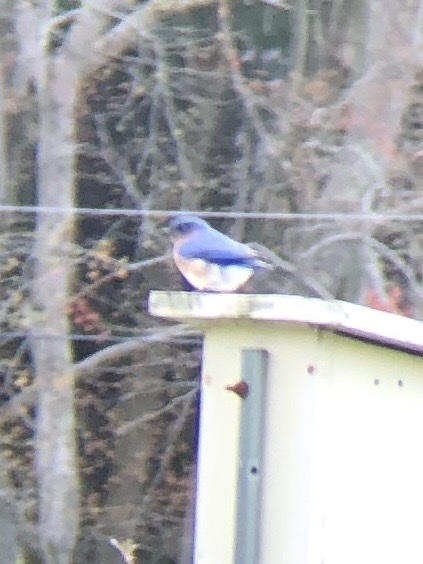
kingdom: Animalia
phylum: Chordata
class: Aves
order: Passeriformes
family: Turdidae
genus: Sialia
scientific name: Sialia sialis
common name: Eastern bluebird
